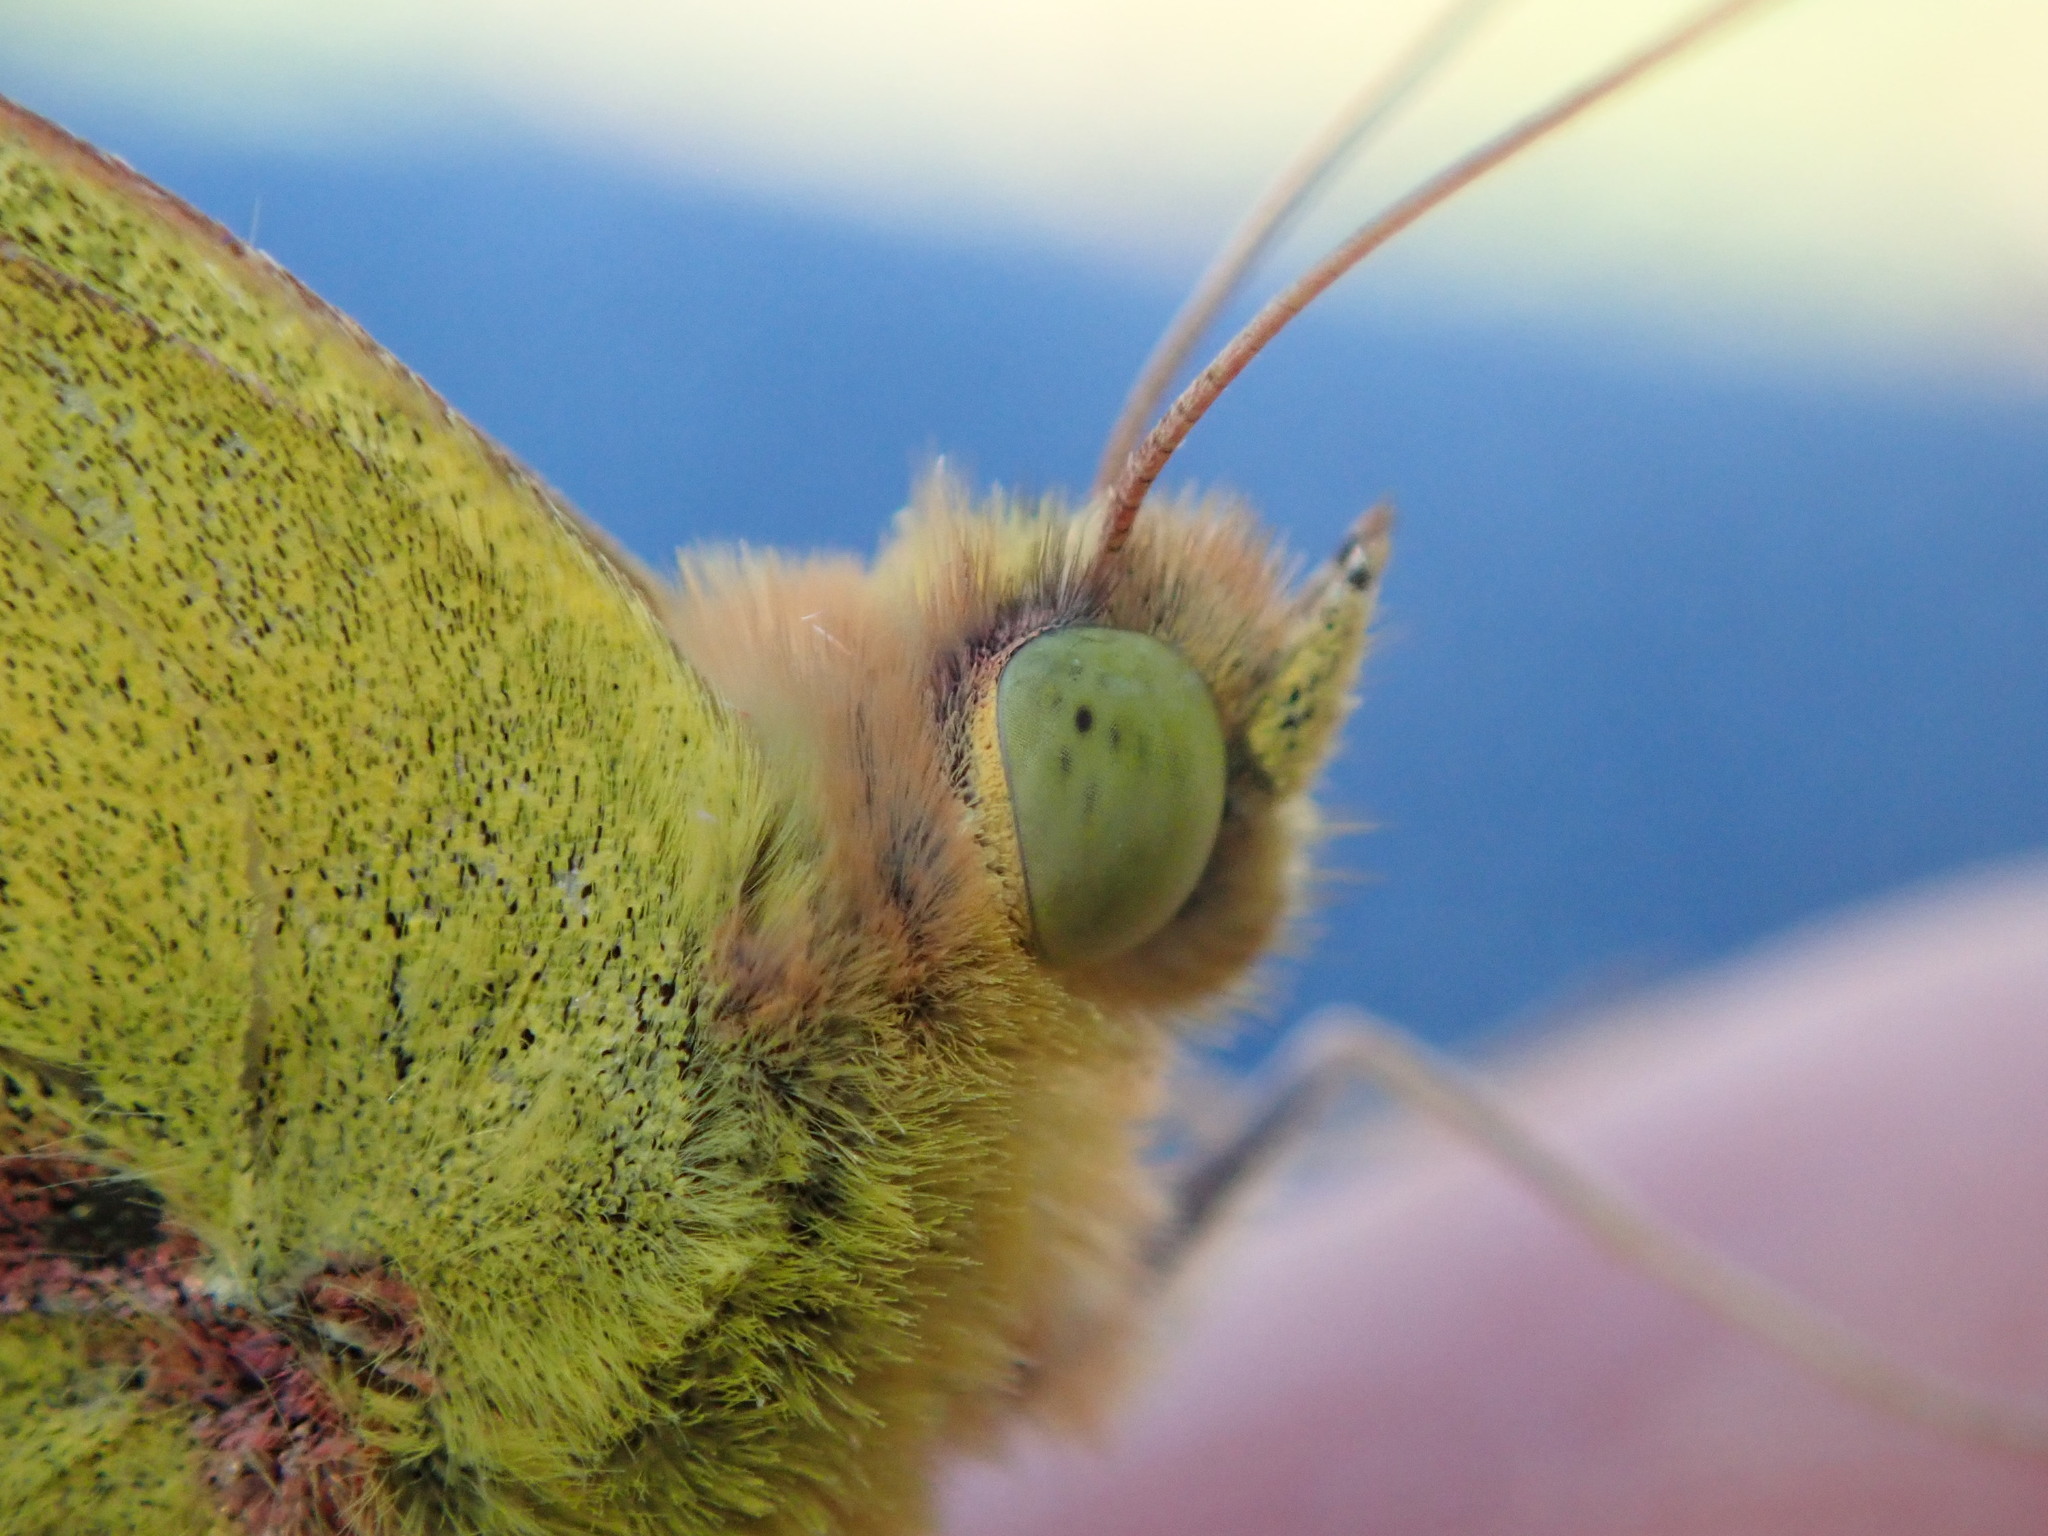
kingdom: Animalia
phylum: Arthropoda
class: Insecta
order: Lepidoptera
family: Pieridae
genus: Colias
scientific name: Colias eurytheme
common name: Alfalfa butterfly
